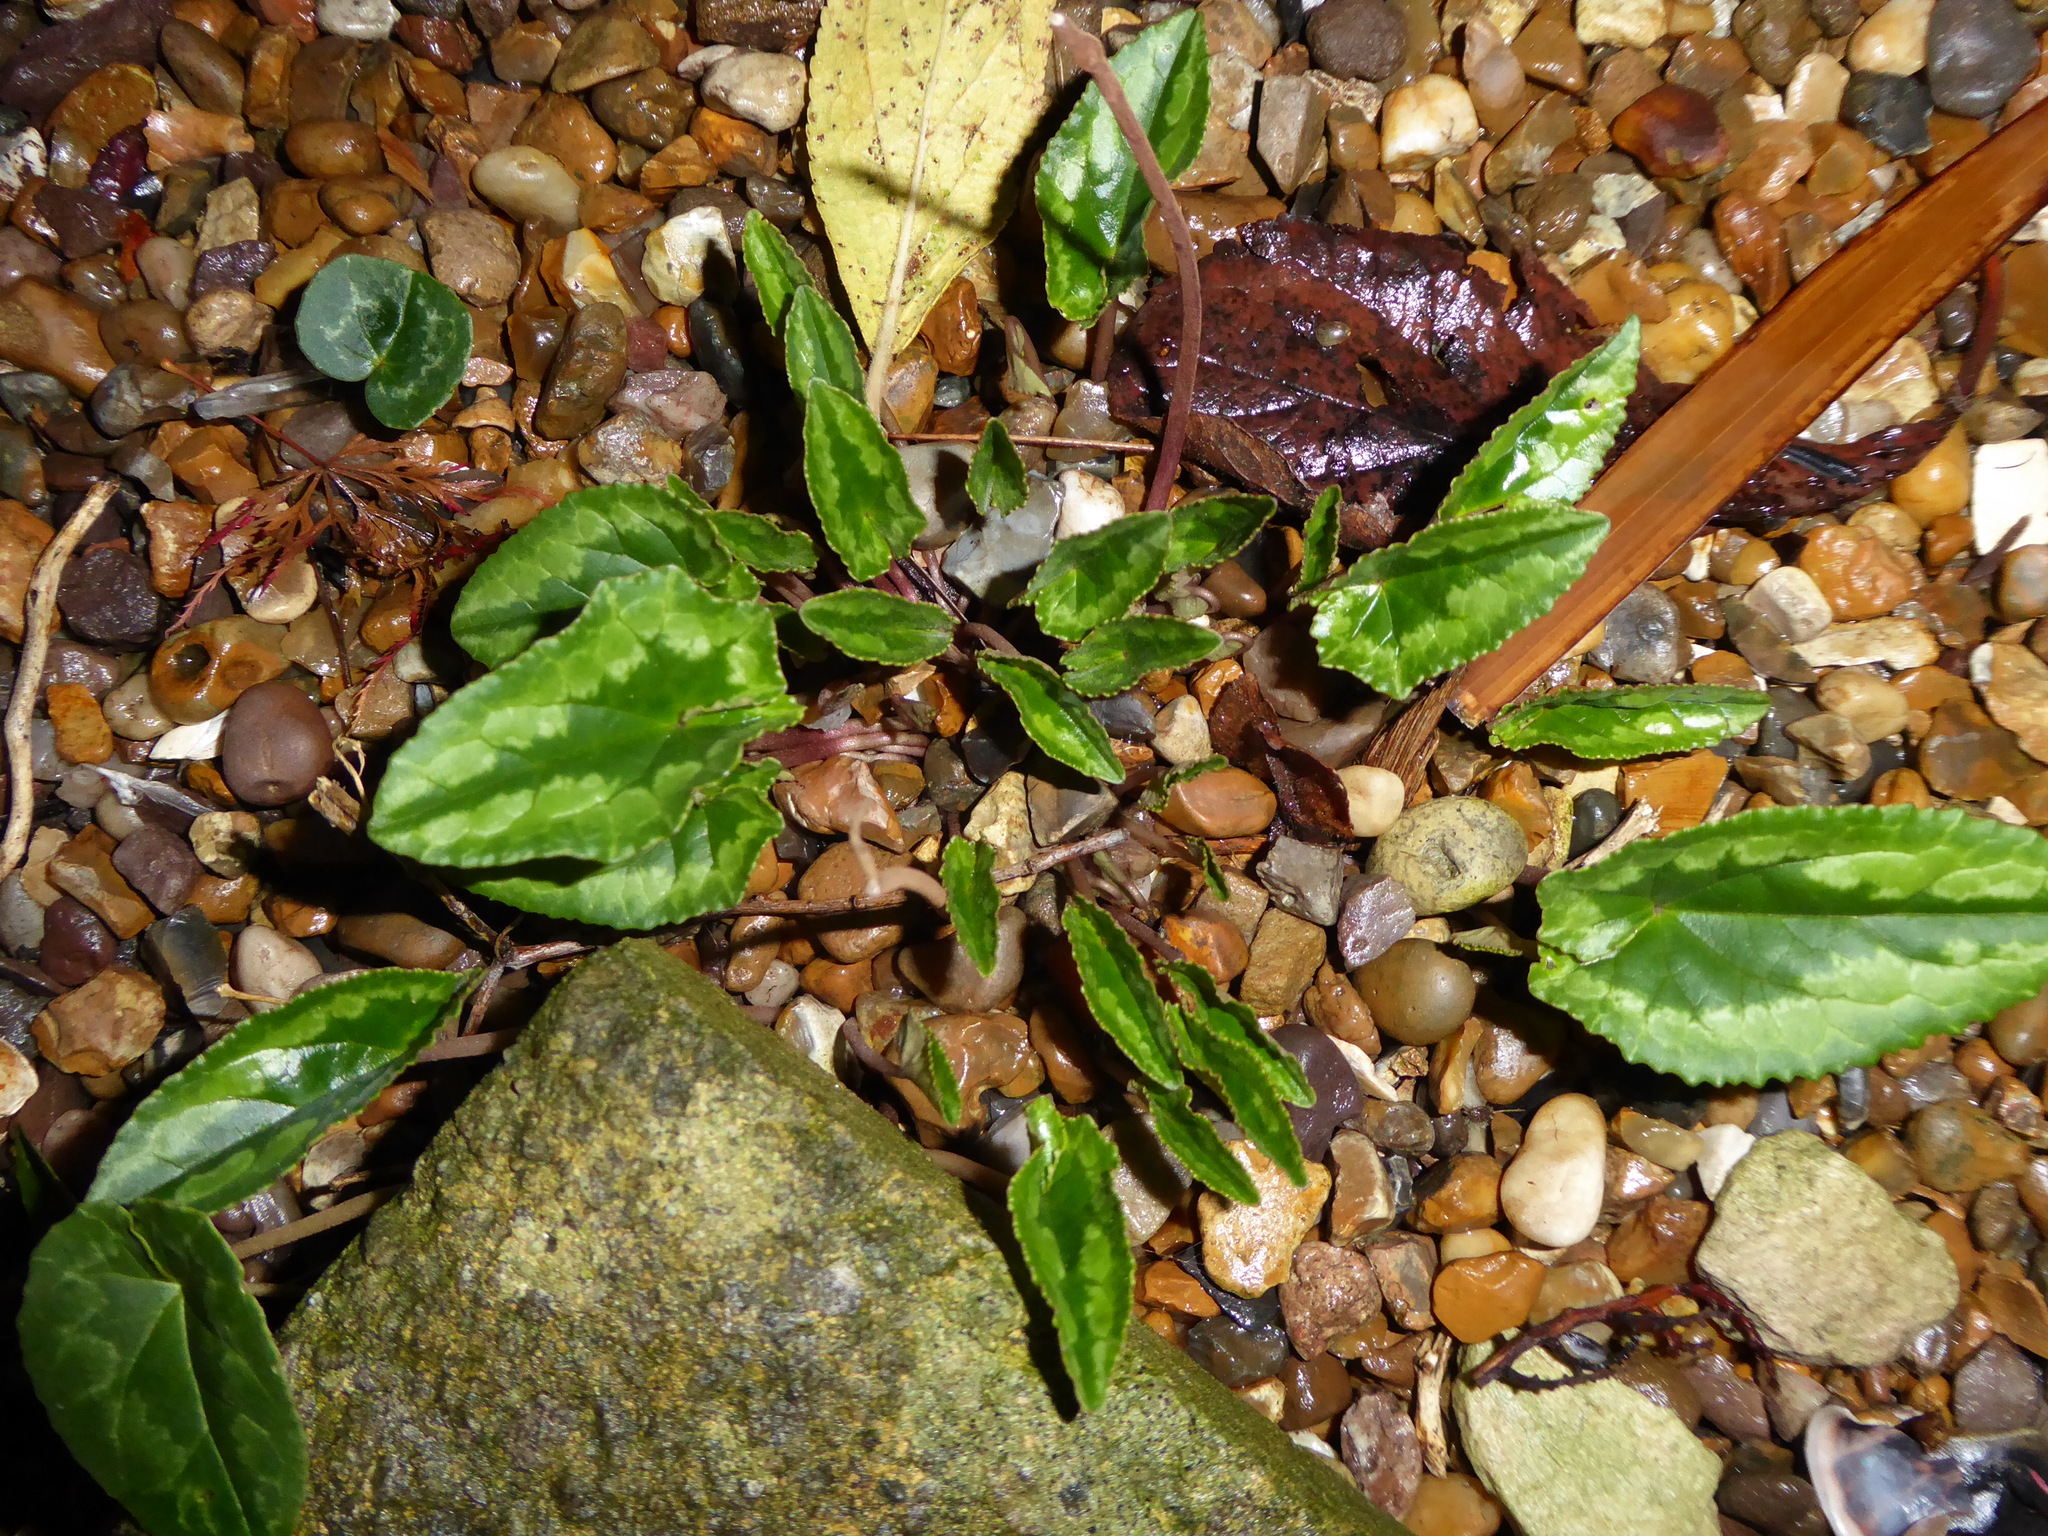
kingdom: Plantae
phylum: Tracheophyta
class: Magnoliopsida
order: Ericales
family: Primulaceae
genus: Cyclamen
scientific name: Cyclamen hederifolium
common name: Sowbread
